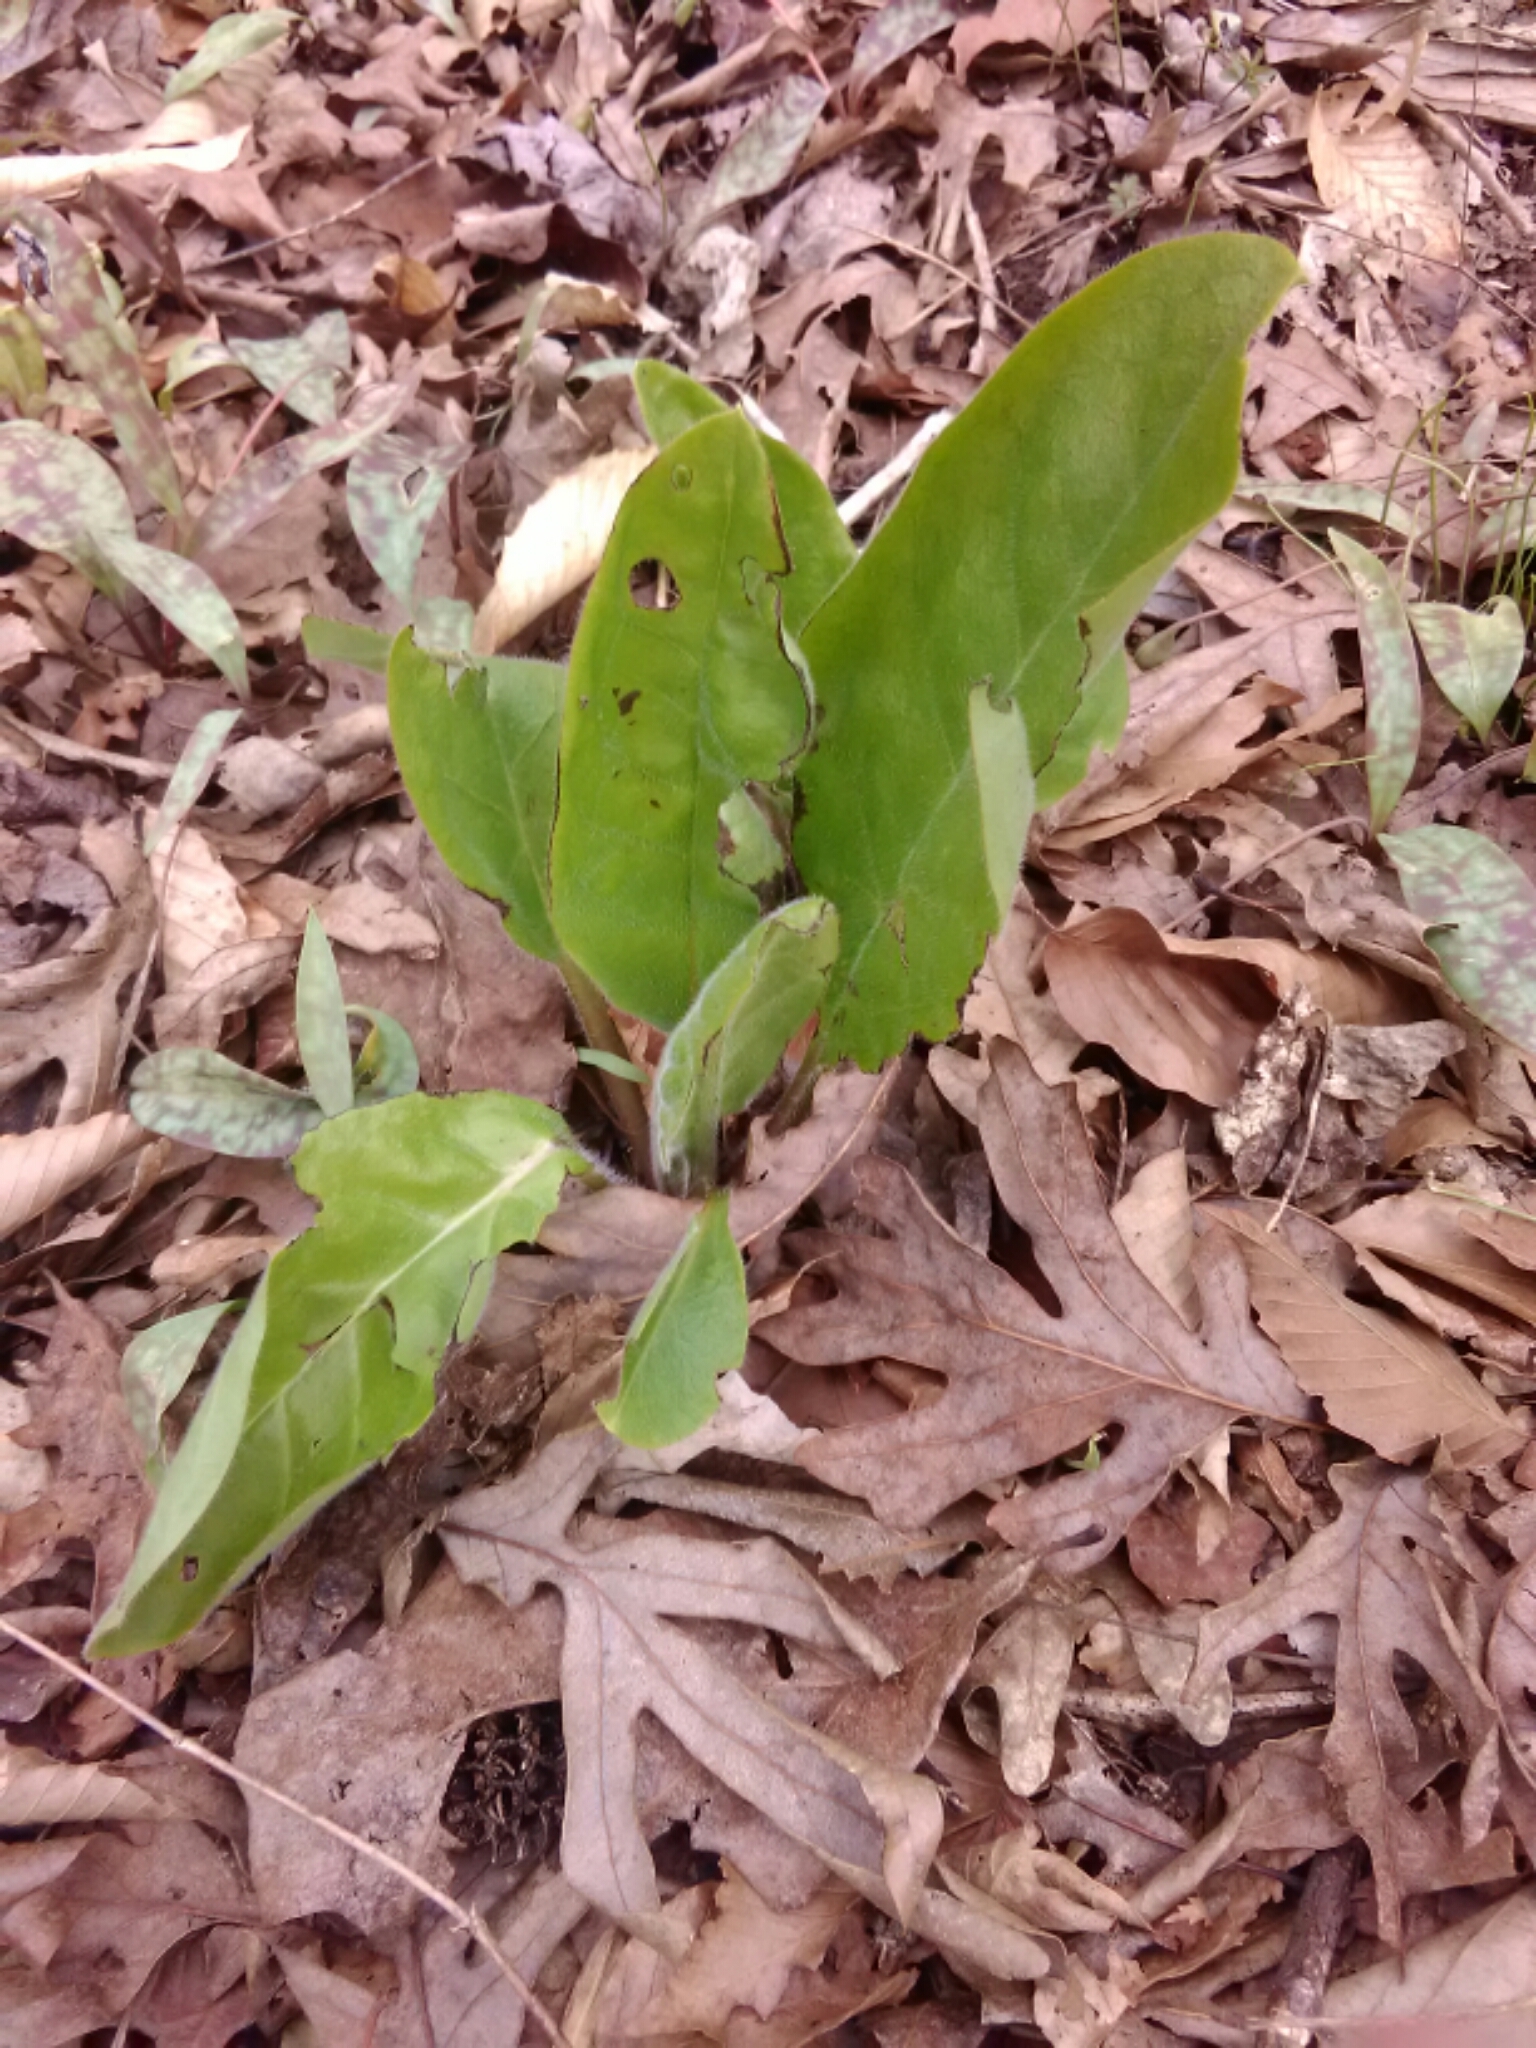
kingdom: Plantae
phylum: Tracheophyta
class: Magnoliopsida
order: Boraginales
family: Boraginaceae
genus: Andersonglossum
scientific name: Andersonglossum virginianum
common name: Wild comfrey
